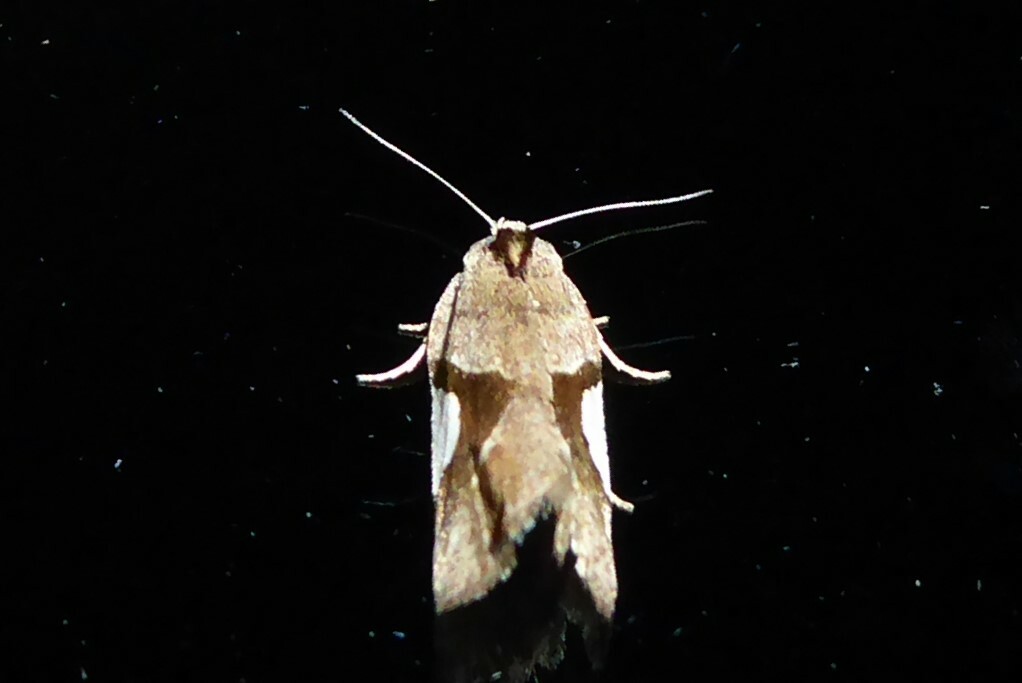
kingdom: Animalia
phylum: Arthropoda
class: Insecta
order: Lepidoptera
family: Tortricidae
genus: Pyrgotis
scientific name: Pyrgotis plagiatana
